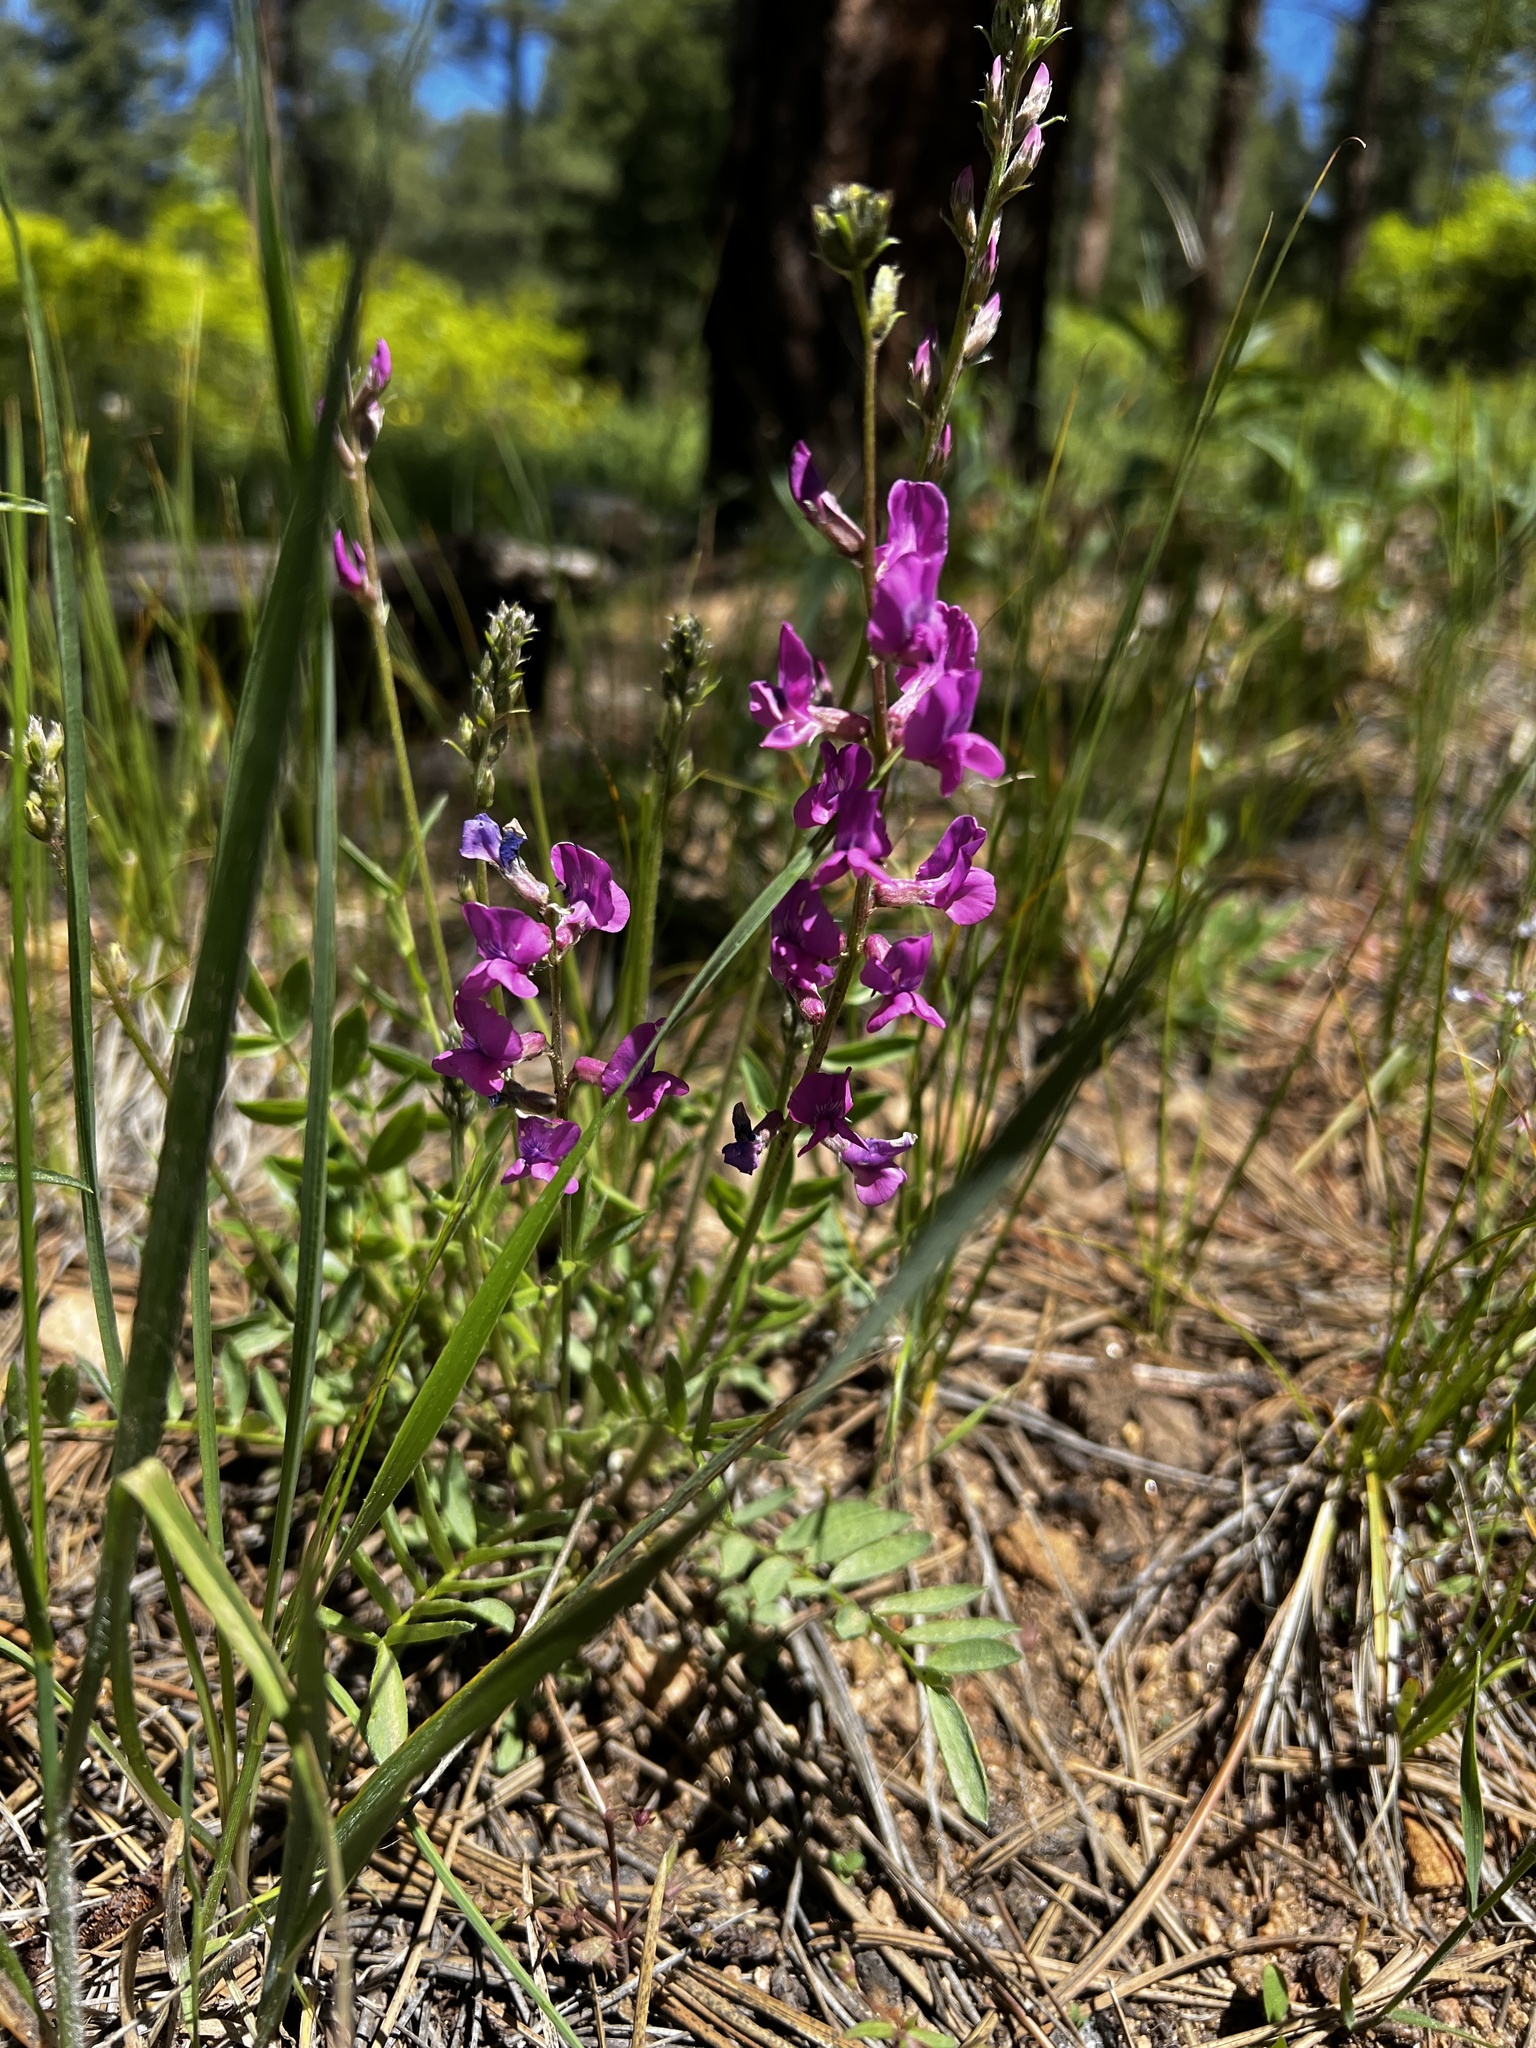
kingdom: Plantae
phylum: Tracheophyta
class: Magnoliopsida
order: Fabales
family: Fabaceae
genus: Oxytropis
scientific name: Oxytropis lambertii
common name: Purple locoweed
